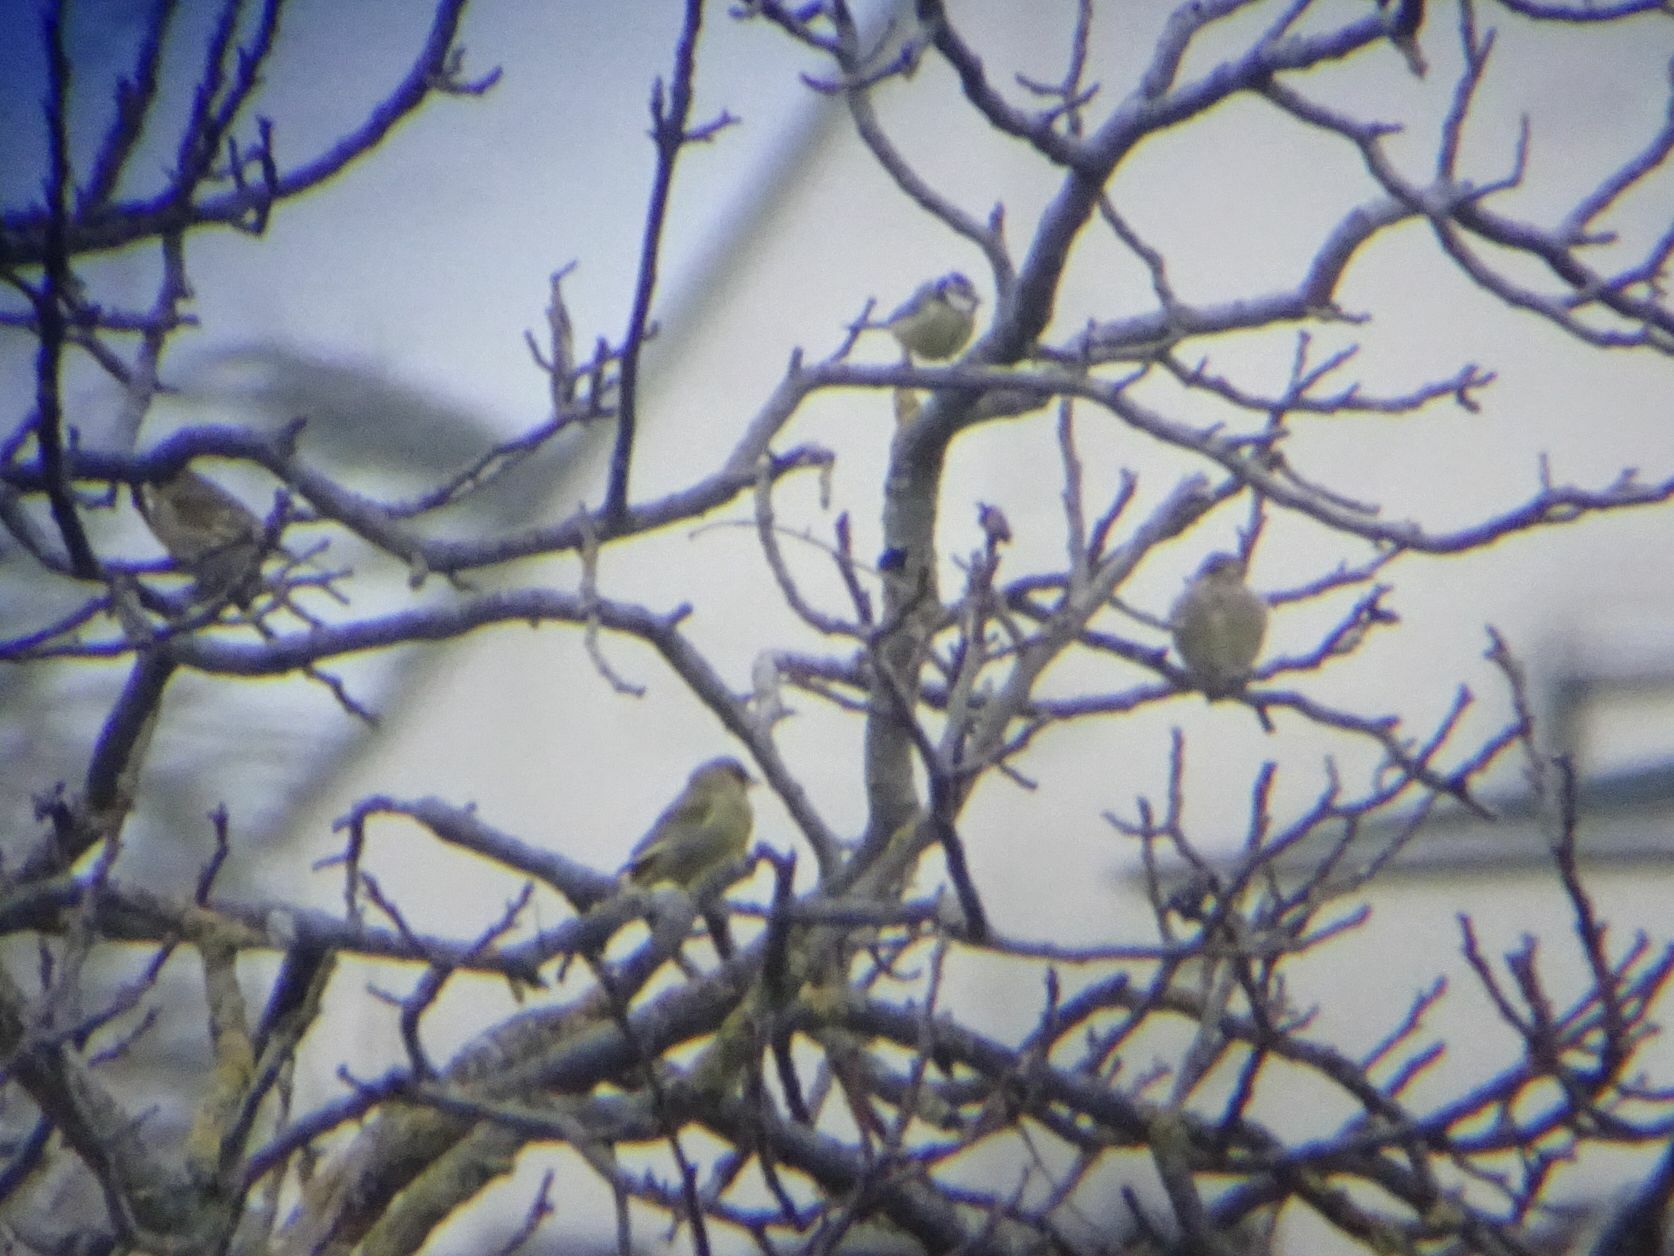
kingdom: Plantae
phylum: Tracheophyta
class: Liliopsida
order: Poales
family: Poaceae
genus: Chloris
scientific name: Chloris chloris
